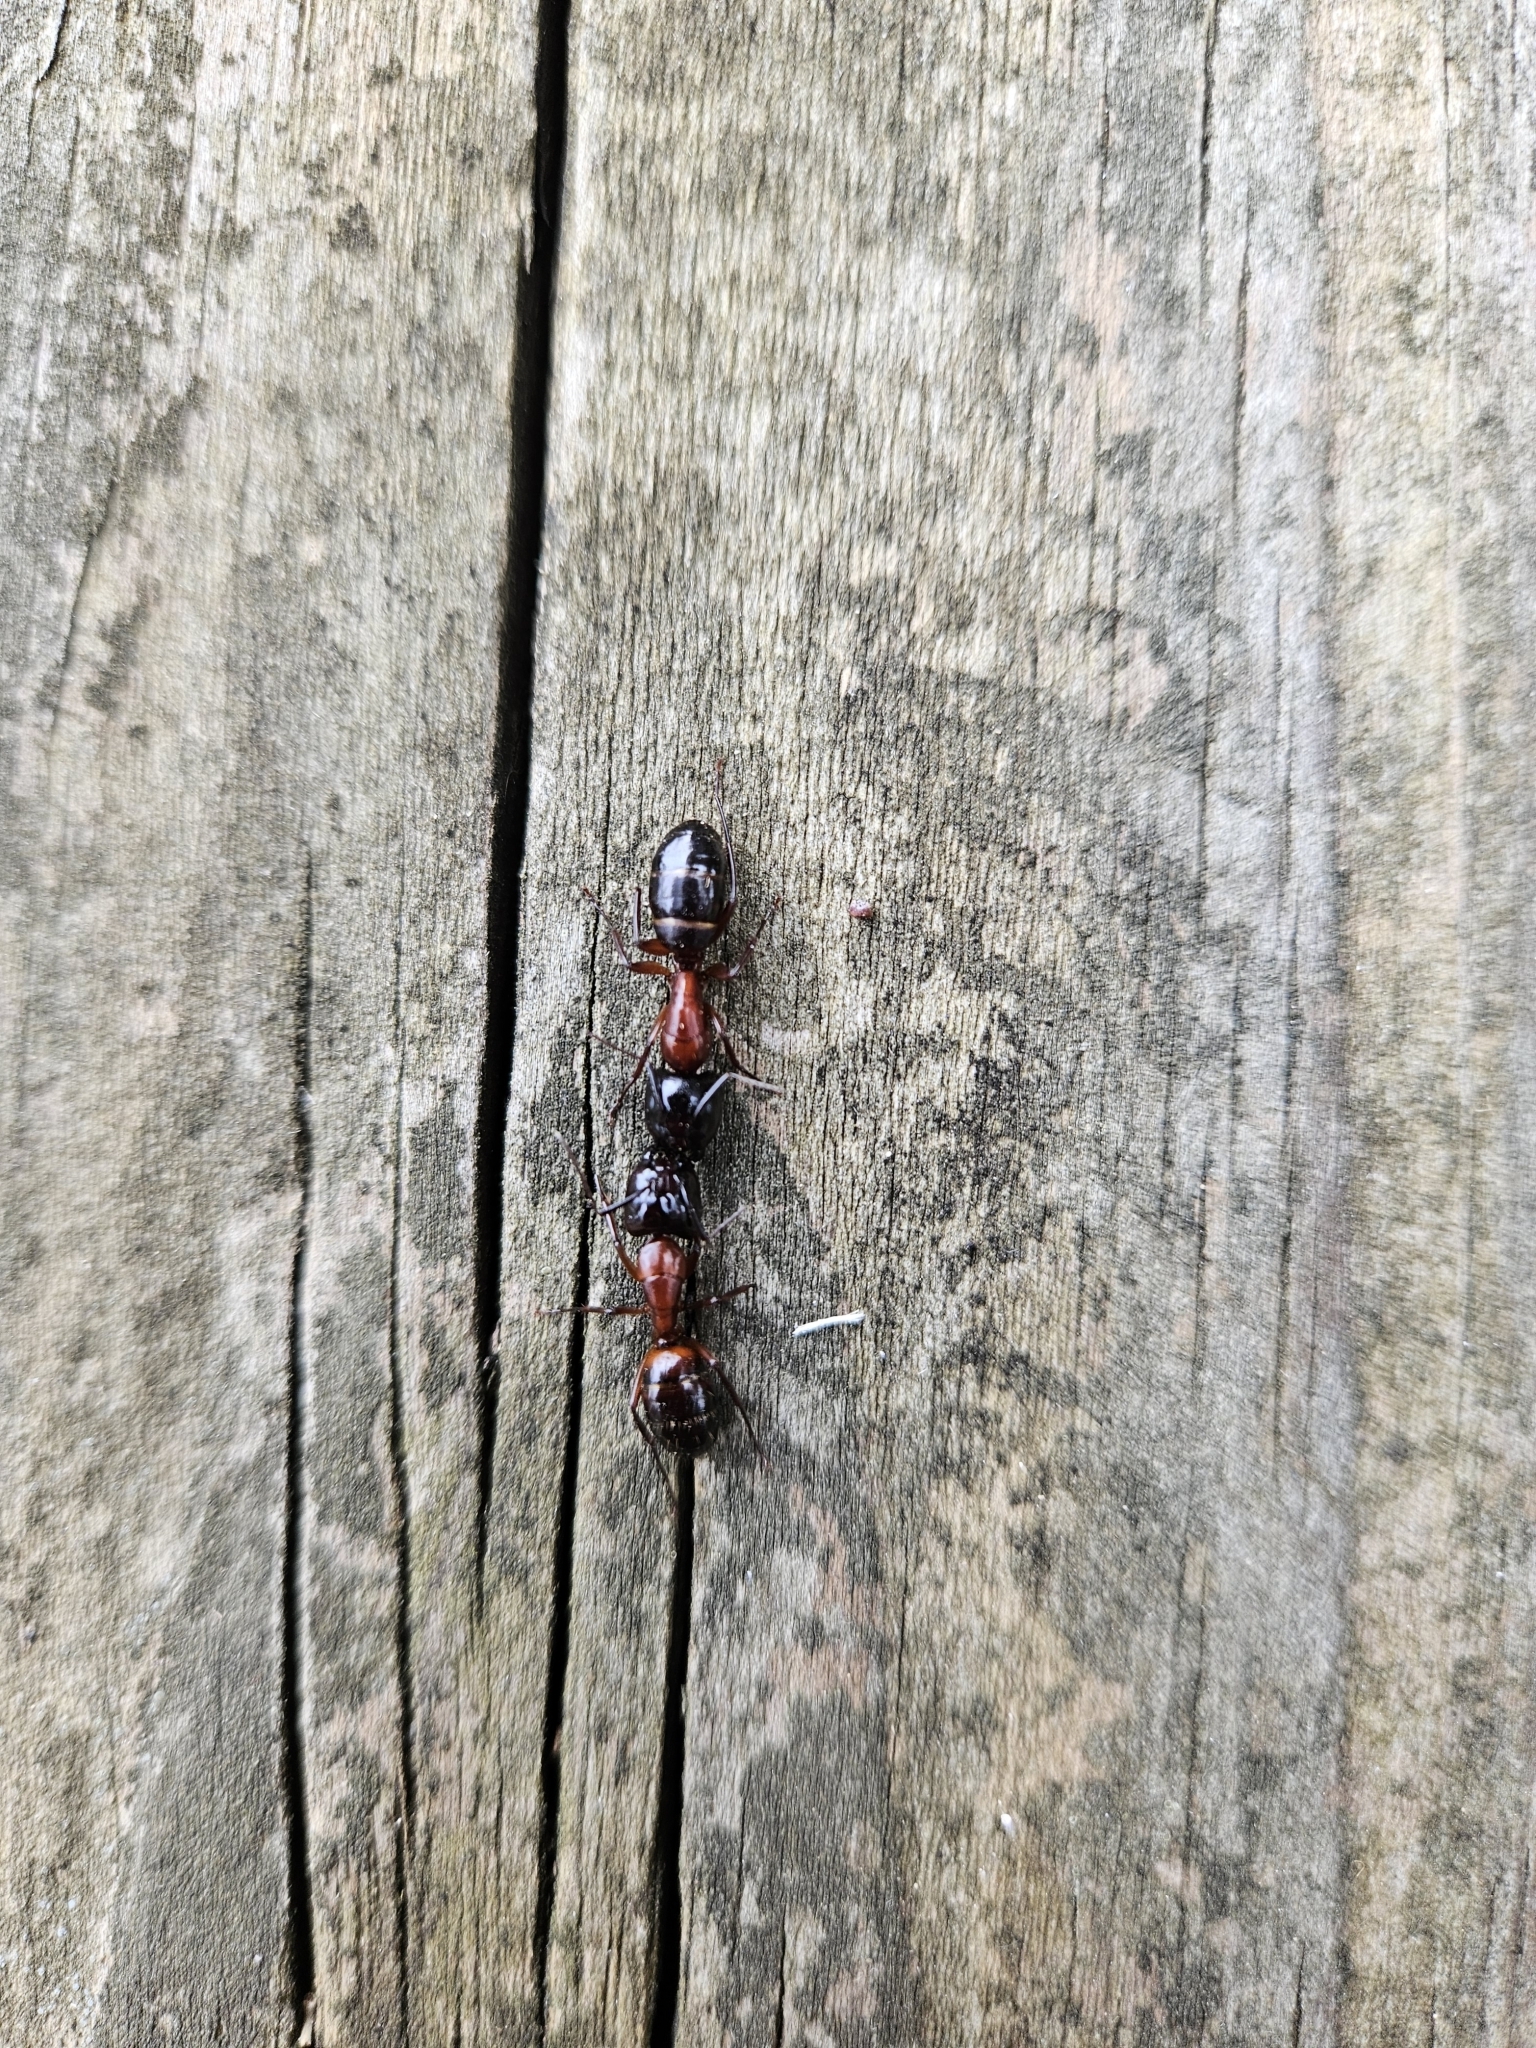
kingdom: Animalia
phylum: Arthropoda
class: Insecta
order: Hymenoptera
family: Formicidae
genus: Camponotus
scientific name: Camponotus texanus
